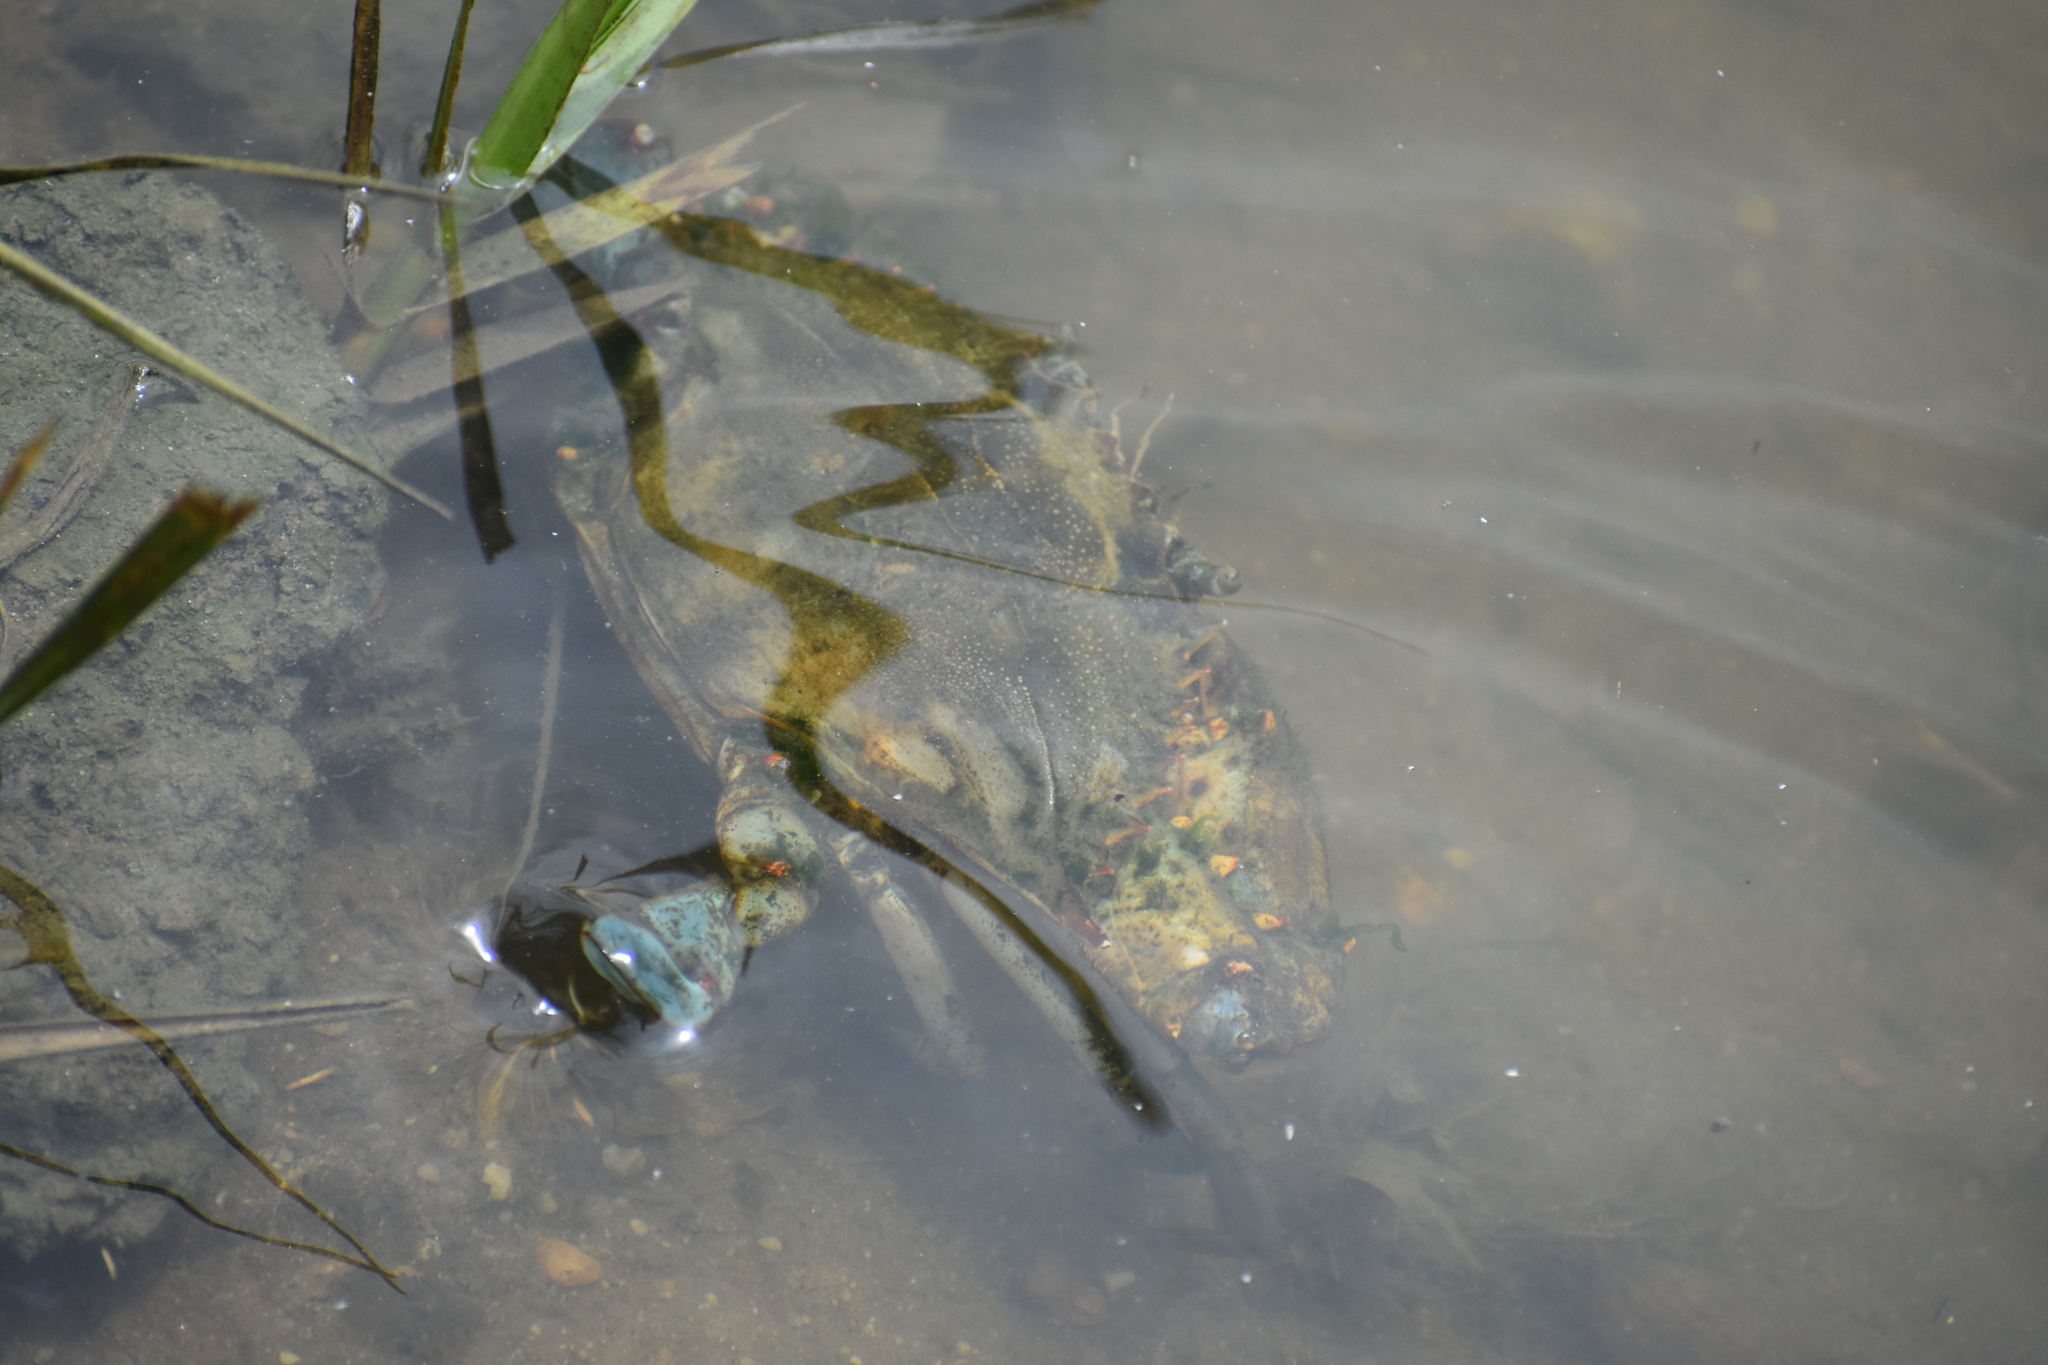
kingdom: Animalia
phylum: Arthropoda
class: Malacostraca
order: Decapoda
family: Portunidae
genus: Callinectes
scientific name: Callinectes sapidus
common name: Blue crab
